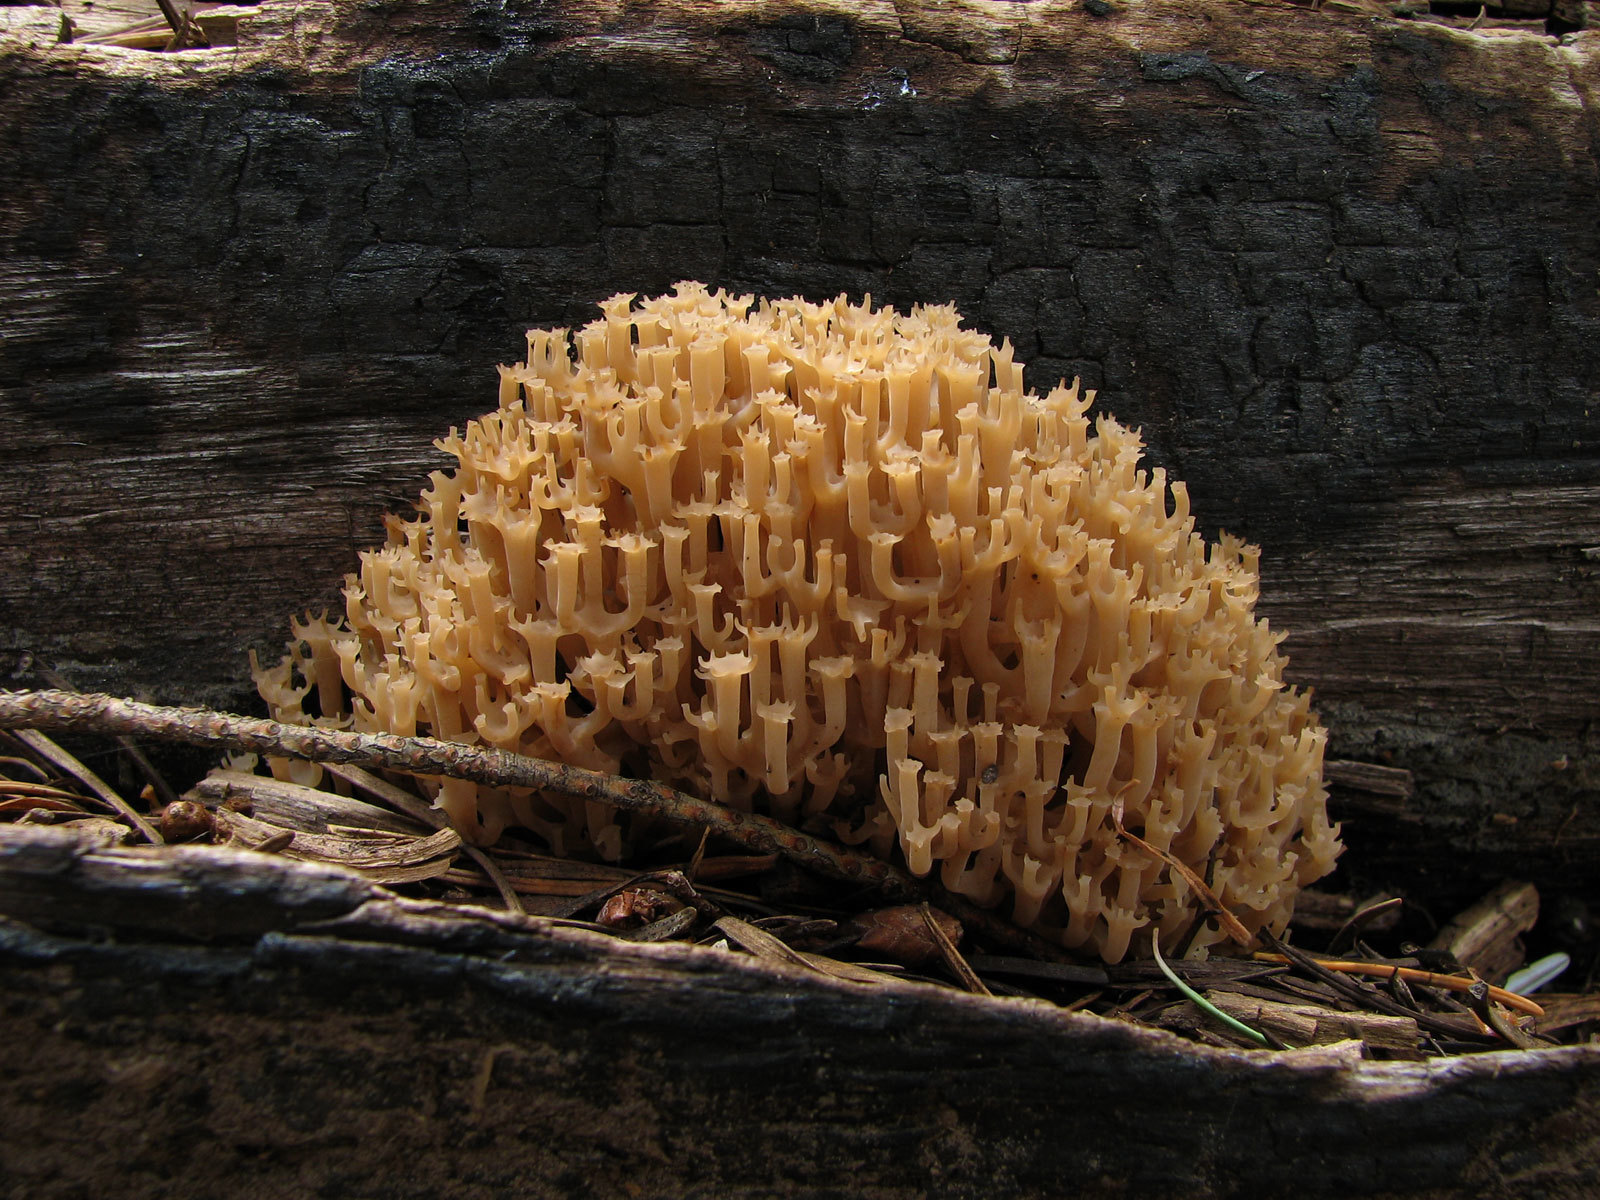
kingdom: Fungi
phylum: Basidiomycota
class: Agaricomycetes
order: Russulales
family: Auriscalpiaceae
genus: Artomyces
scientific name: Artomyces pyxidatus
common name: Crown-tipped coral fungus
